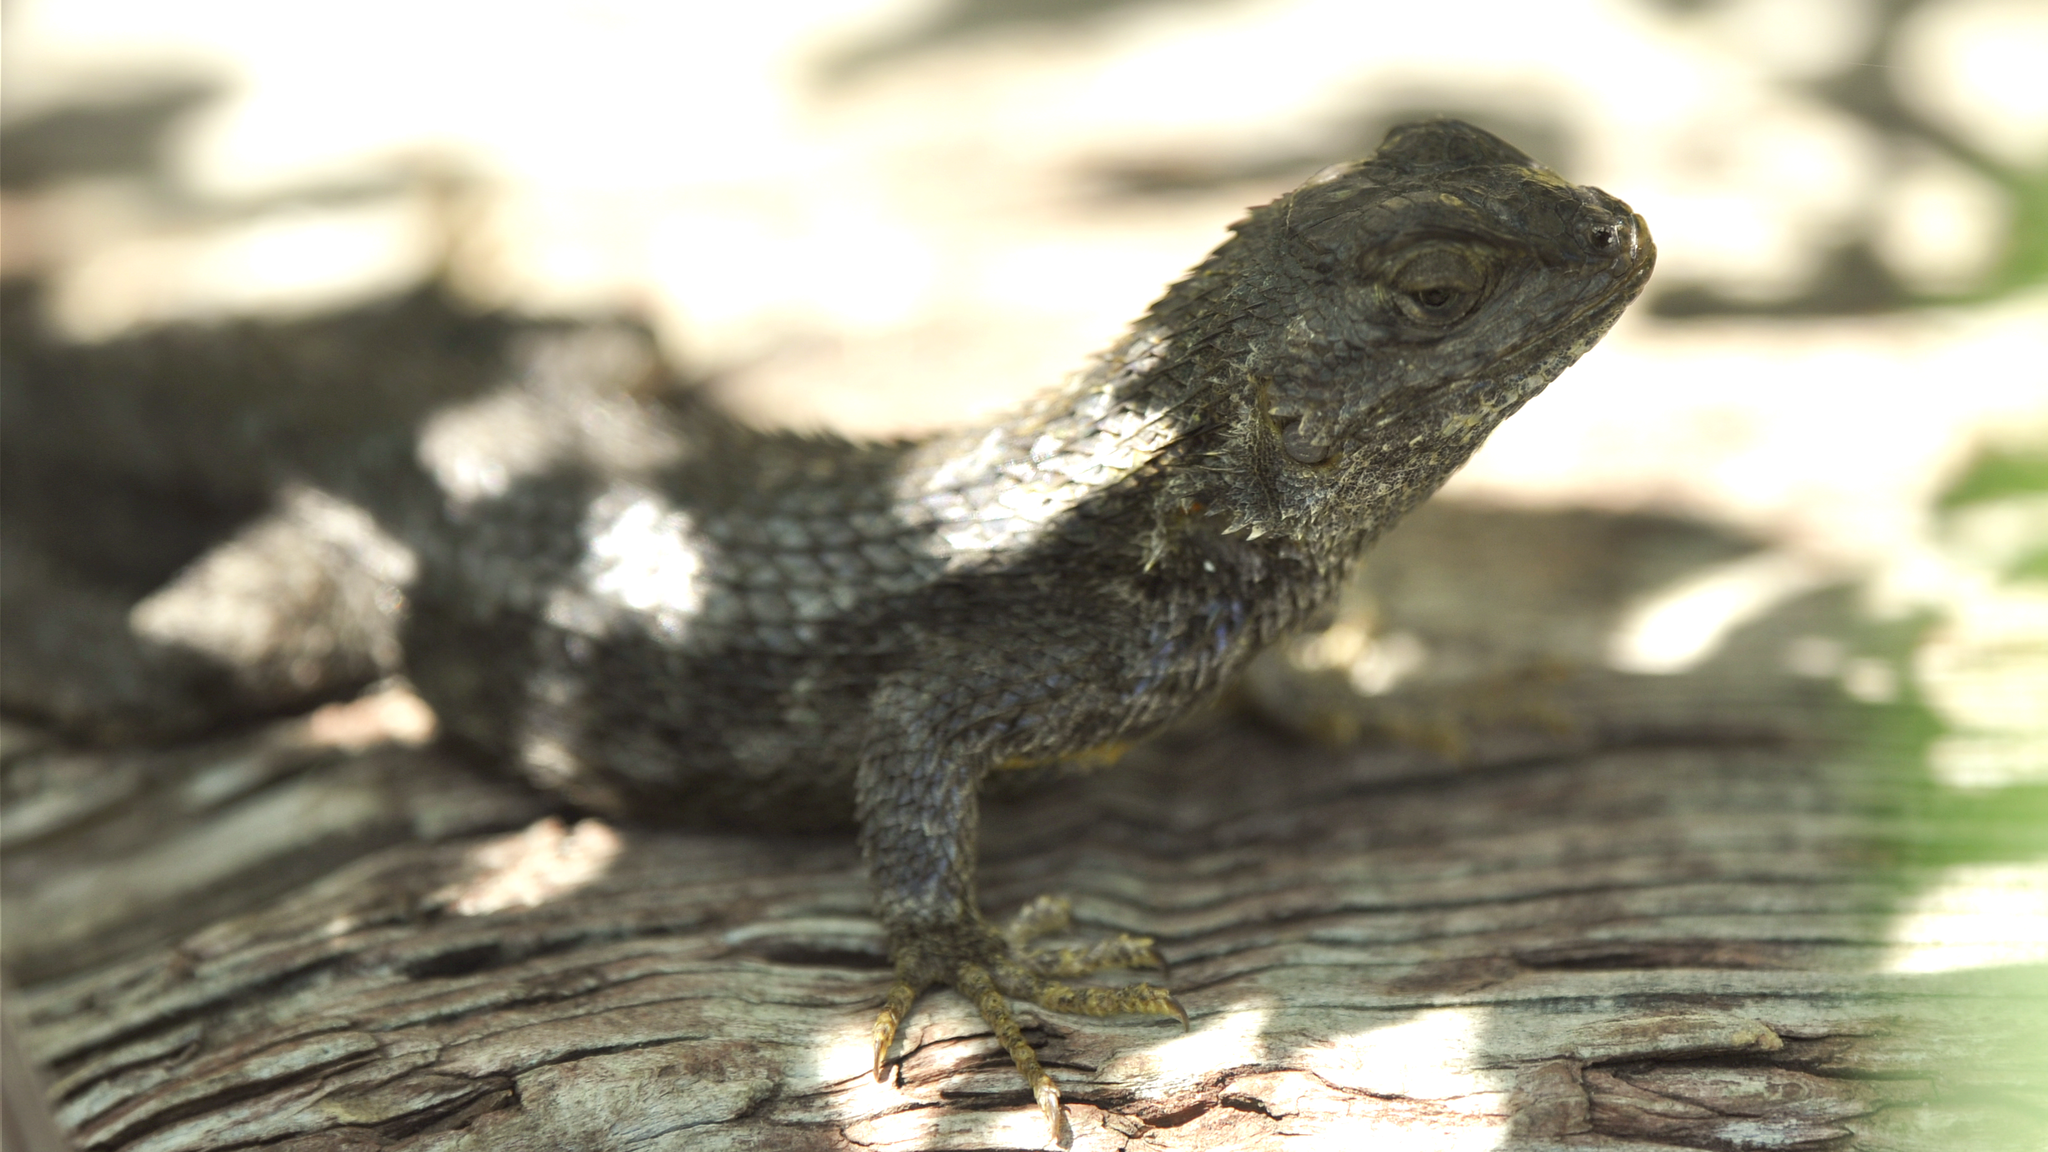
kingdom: Animalia
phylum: Chordata
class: Squamata
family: Phrynosomatidae
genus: Sceloporus
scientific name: Sceloporus occidentalis
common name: Western fence lizard
